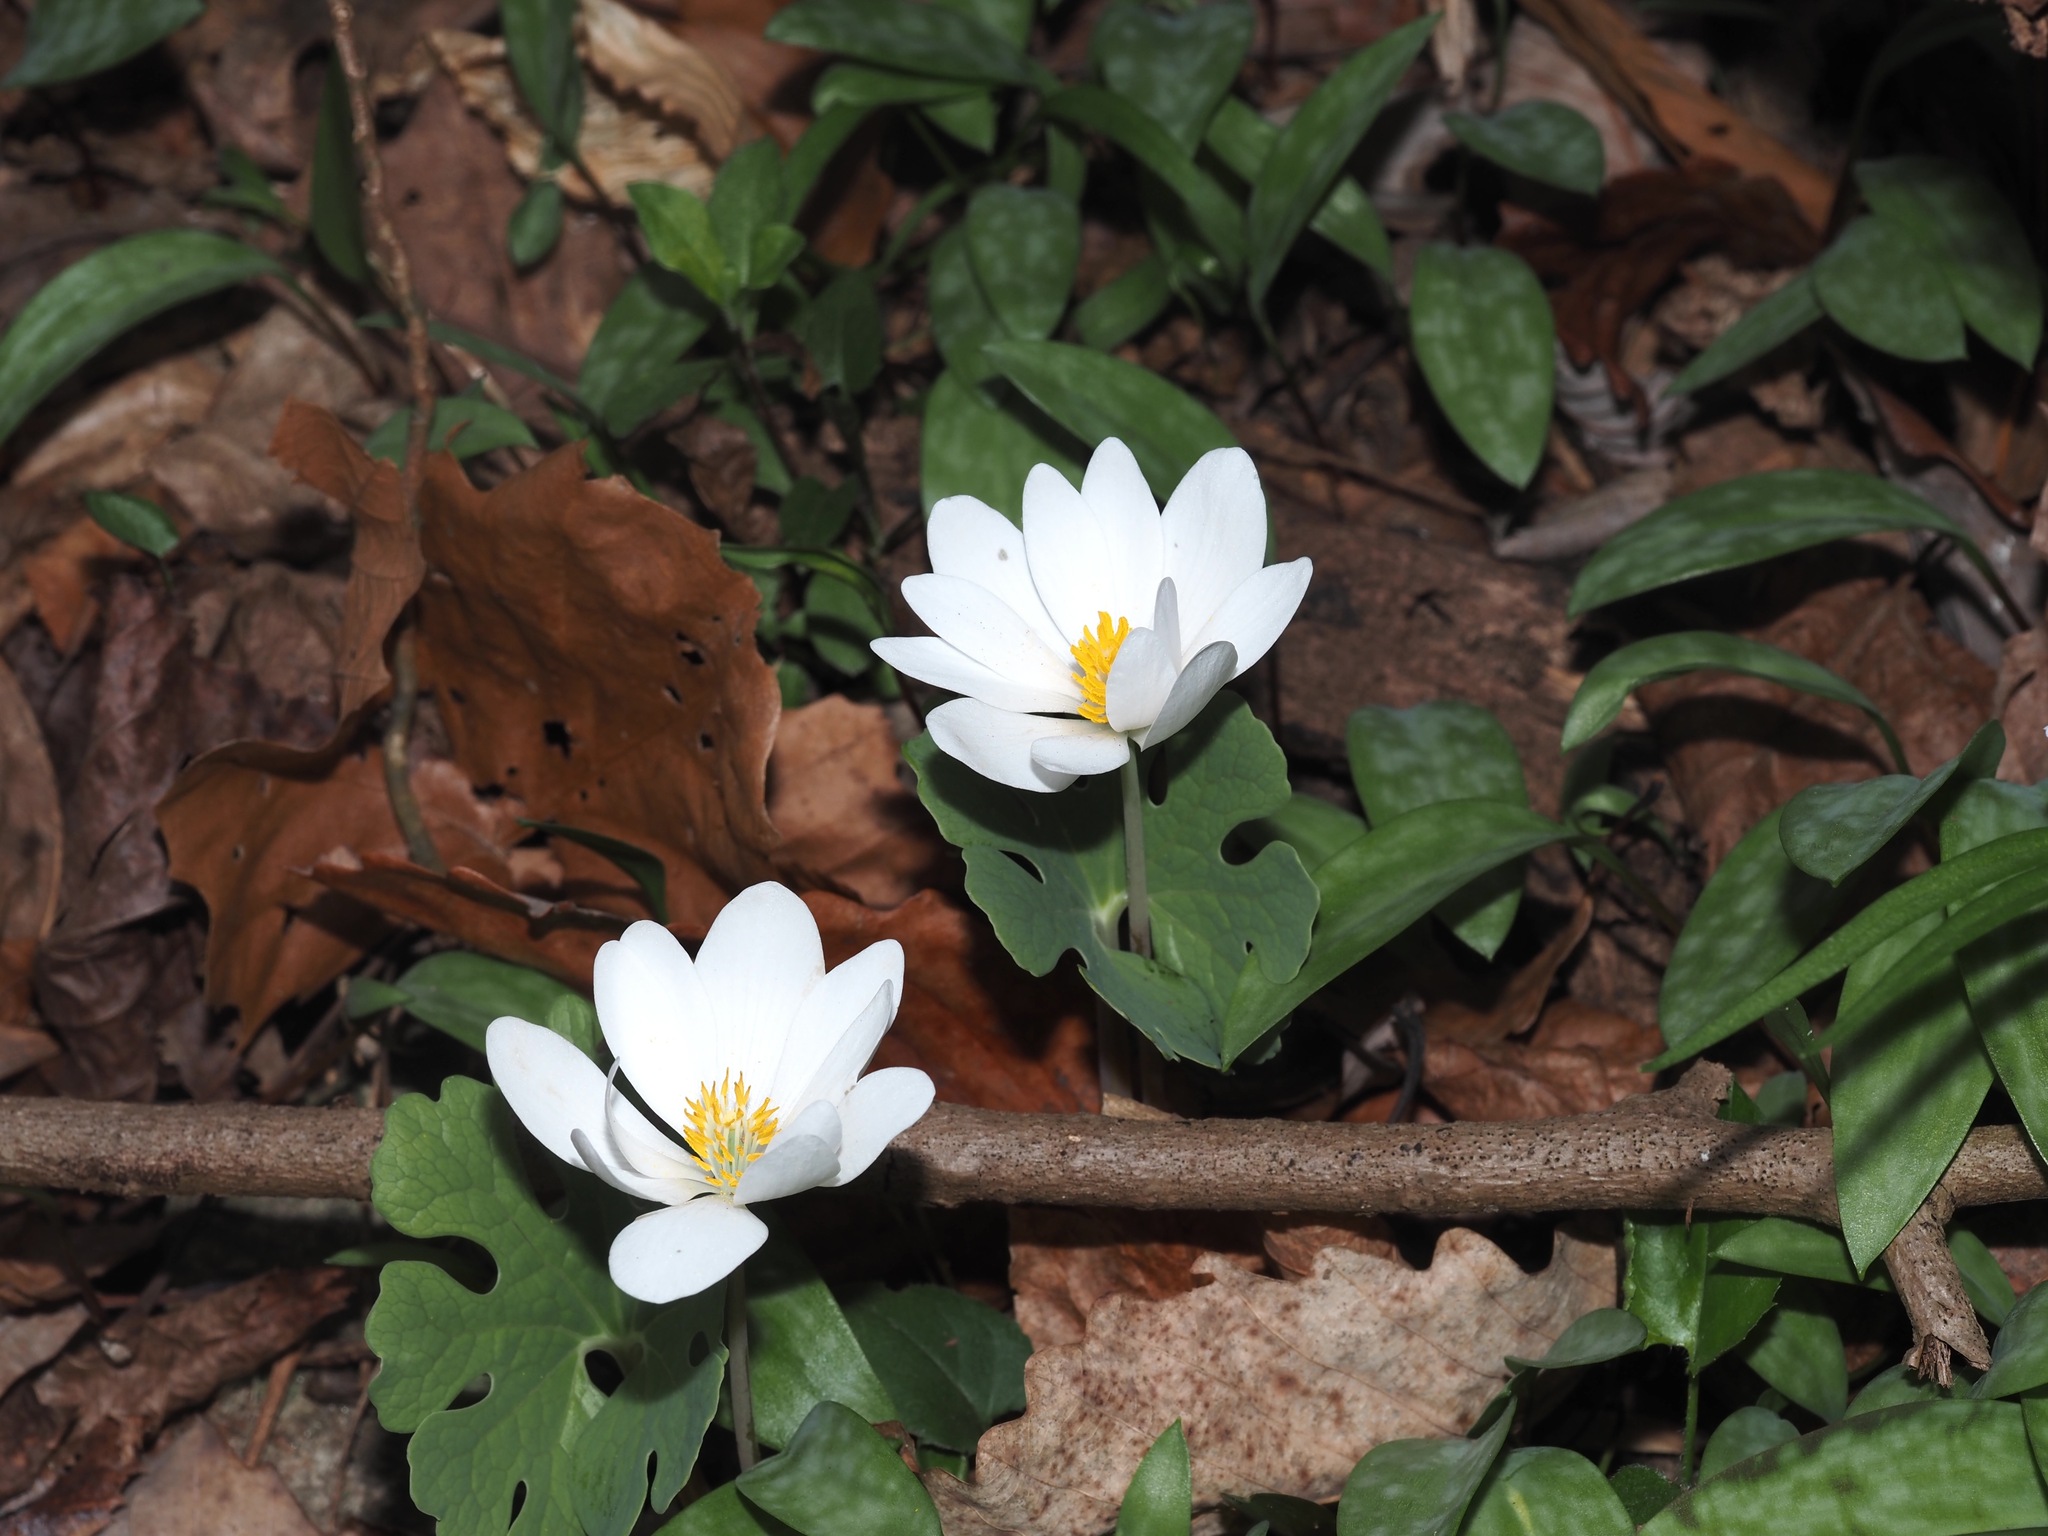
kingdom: Plantae
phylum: Tracheophyta
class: Magnoliopsida
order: Ranunculales
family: Papaveraceae
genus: Sanguinaria
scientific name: Sanguinaria canadensis
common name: Bloodroot
